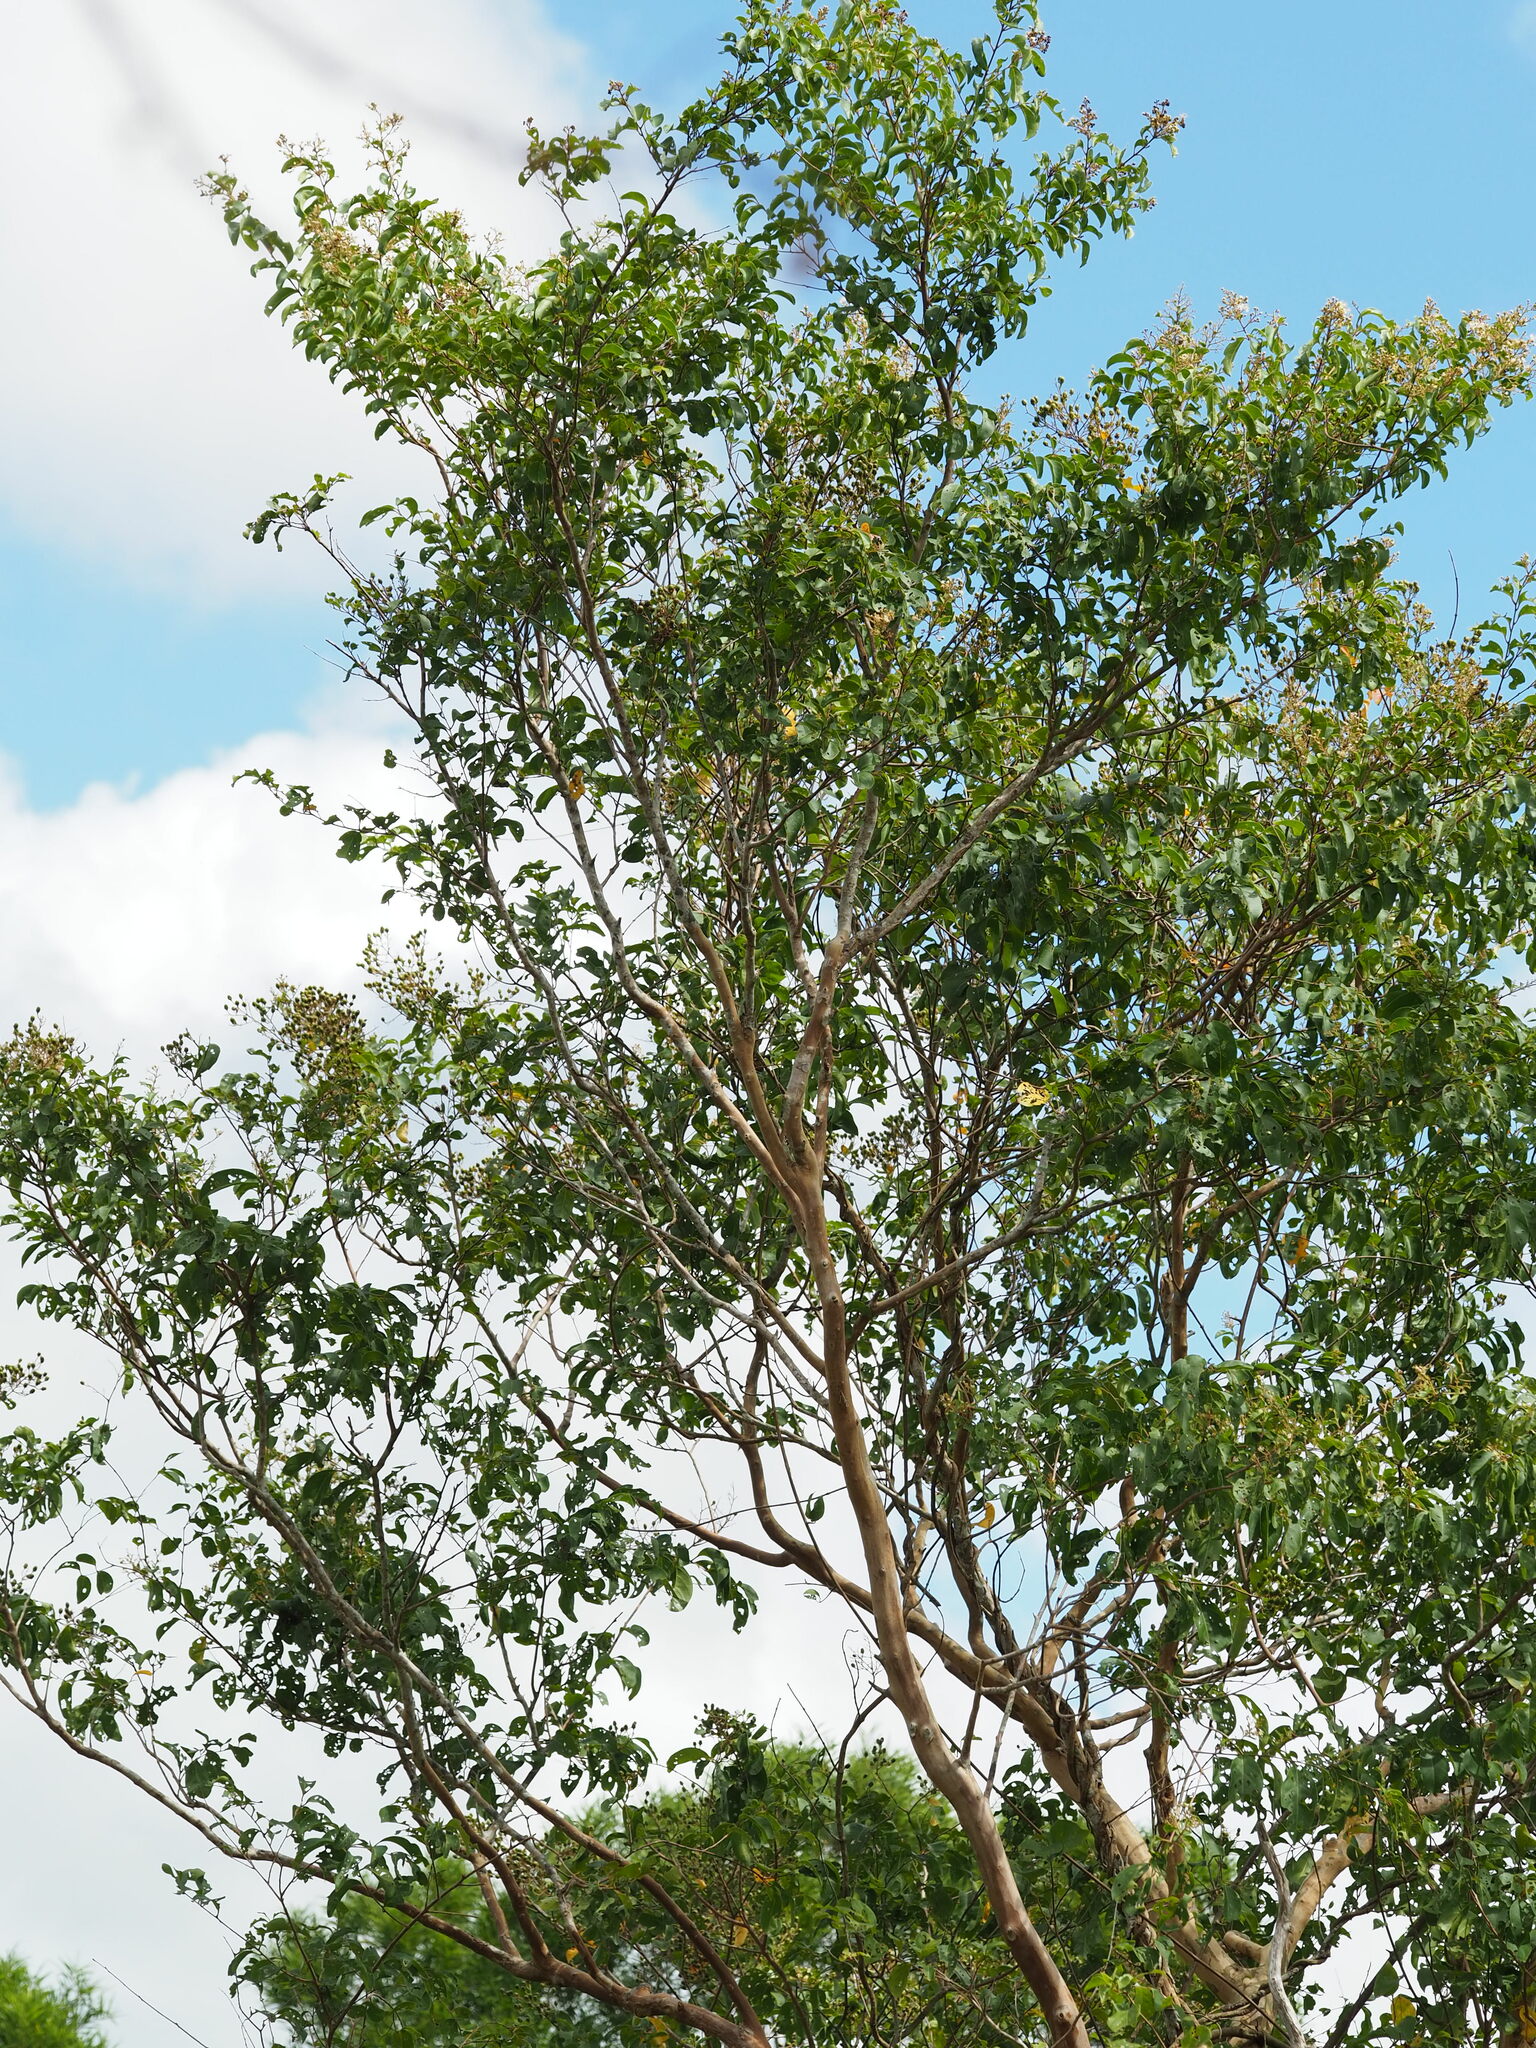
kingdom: Plantae
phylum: Tracheophyta
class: Magnoliopsida
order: Myrtales
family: Lythraceae
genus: Lagerstroemia
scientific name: Lagerstroemia subcostata
